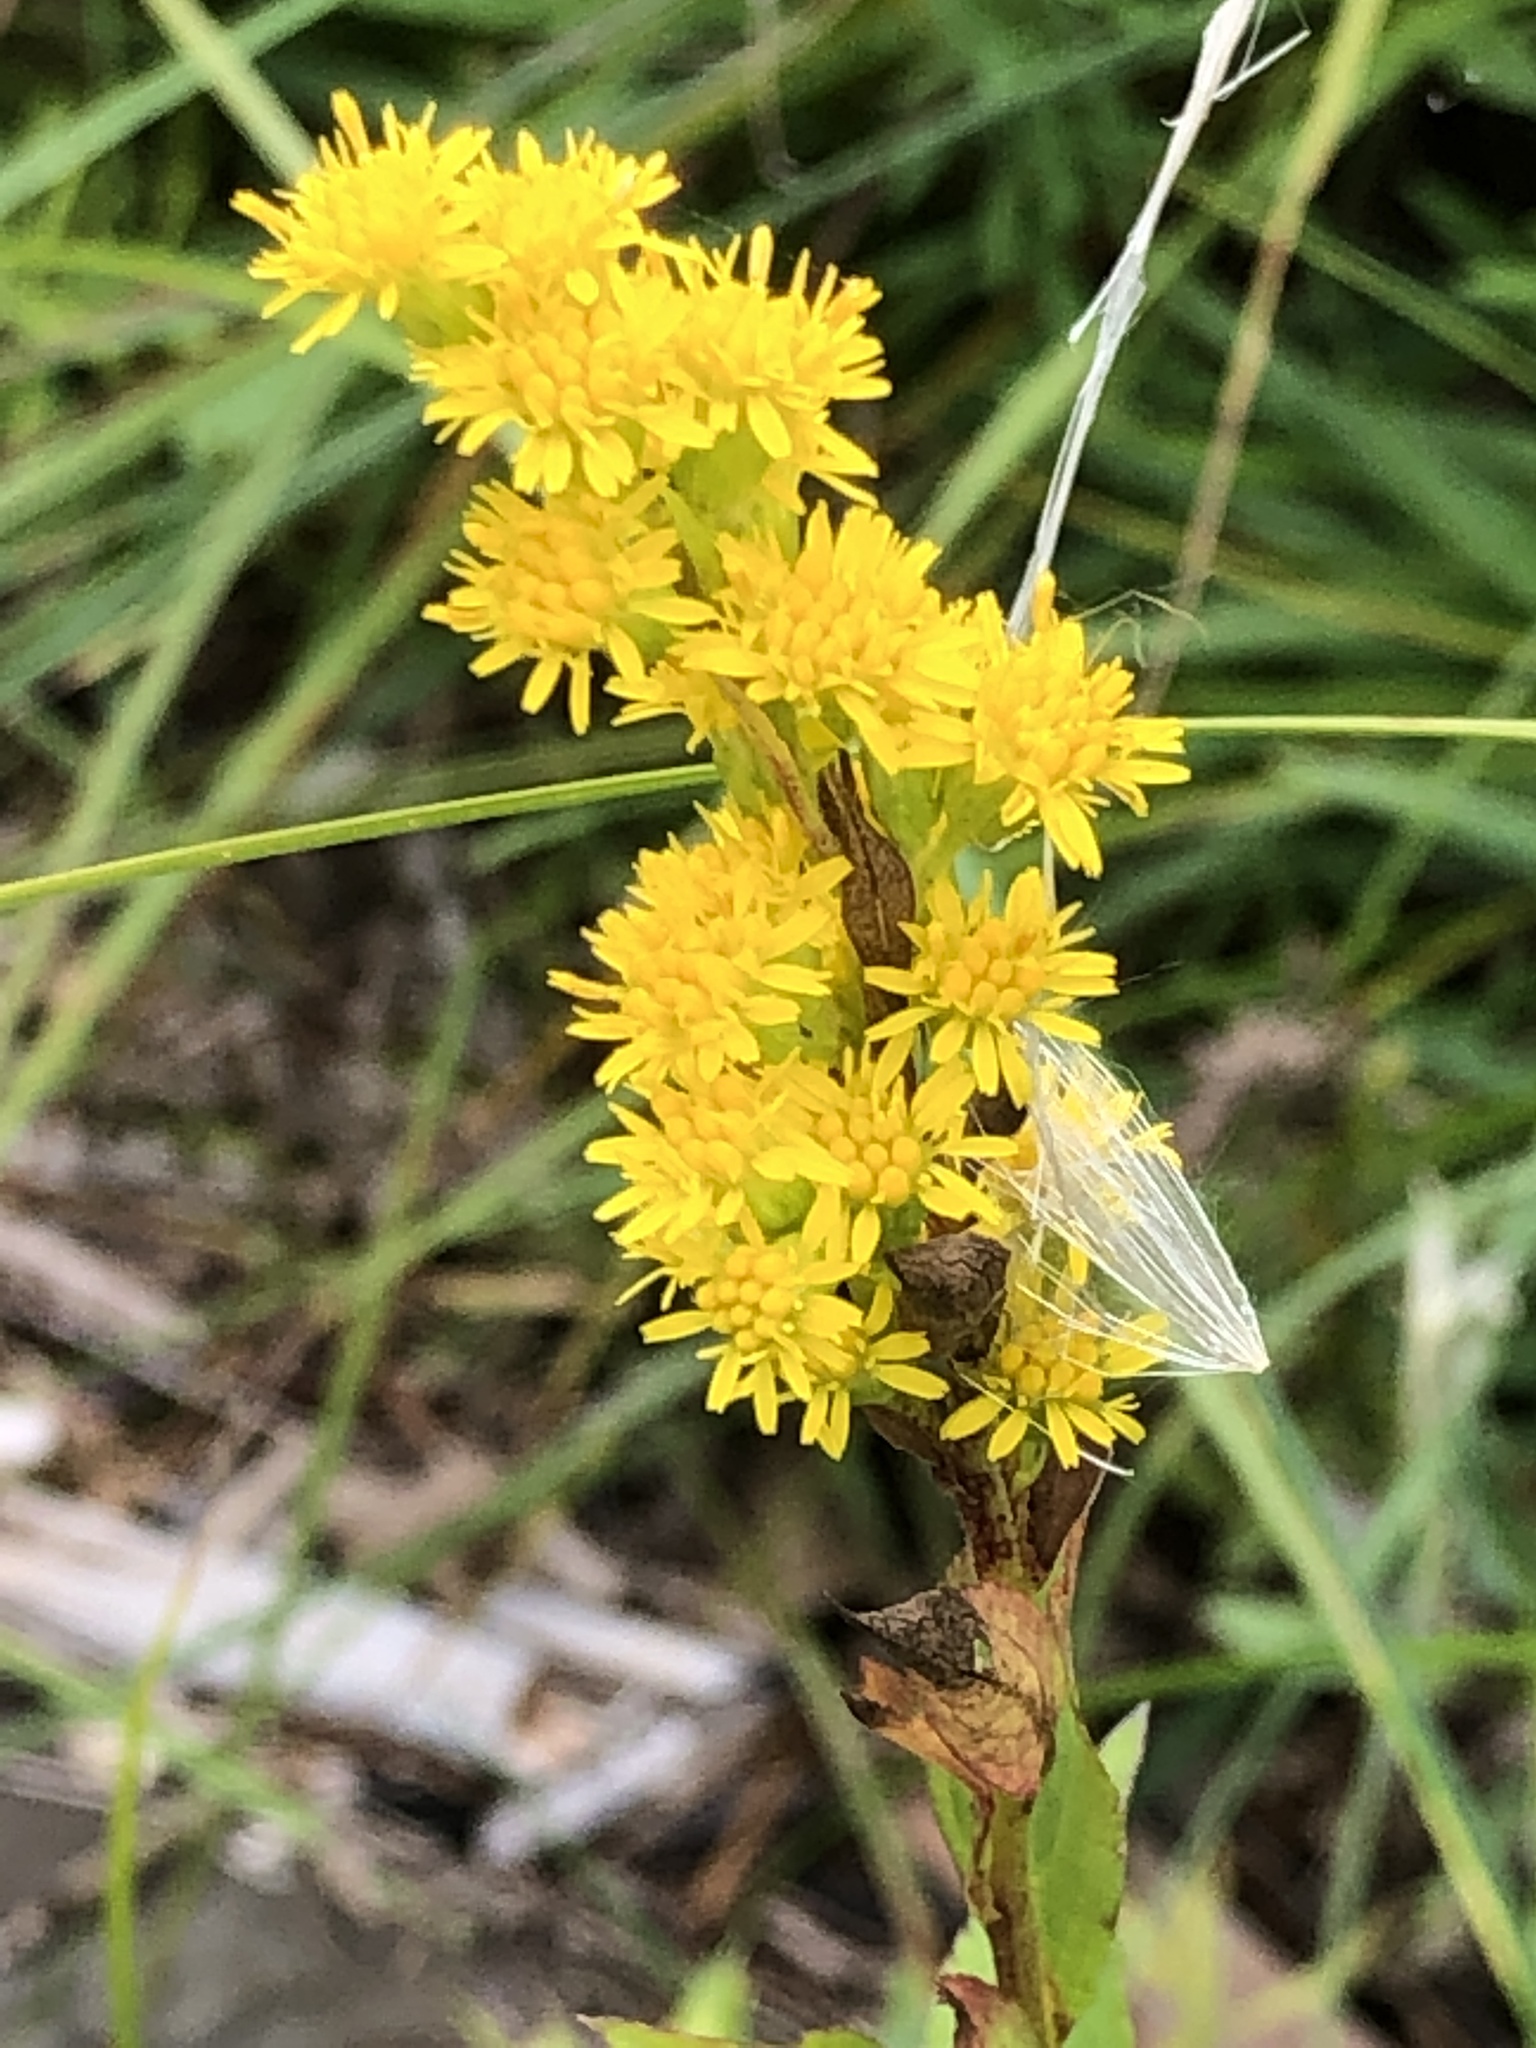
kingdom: Plantae
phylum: Tracheophyta
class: Magnoliopsida
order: Asterales
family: Asteraceae
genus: Solidago
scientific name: Solidago gigantea
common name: Giant goldenrod
